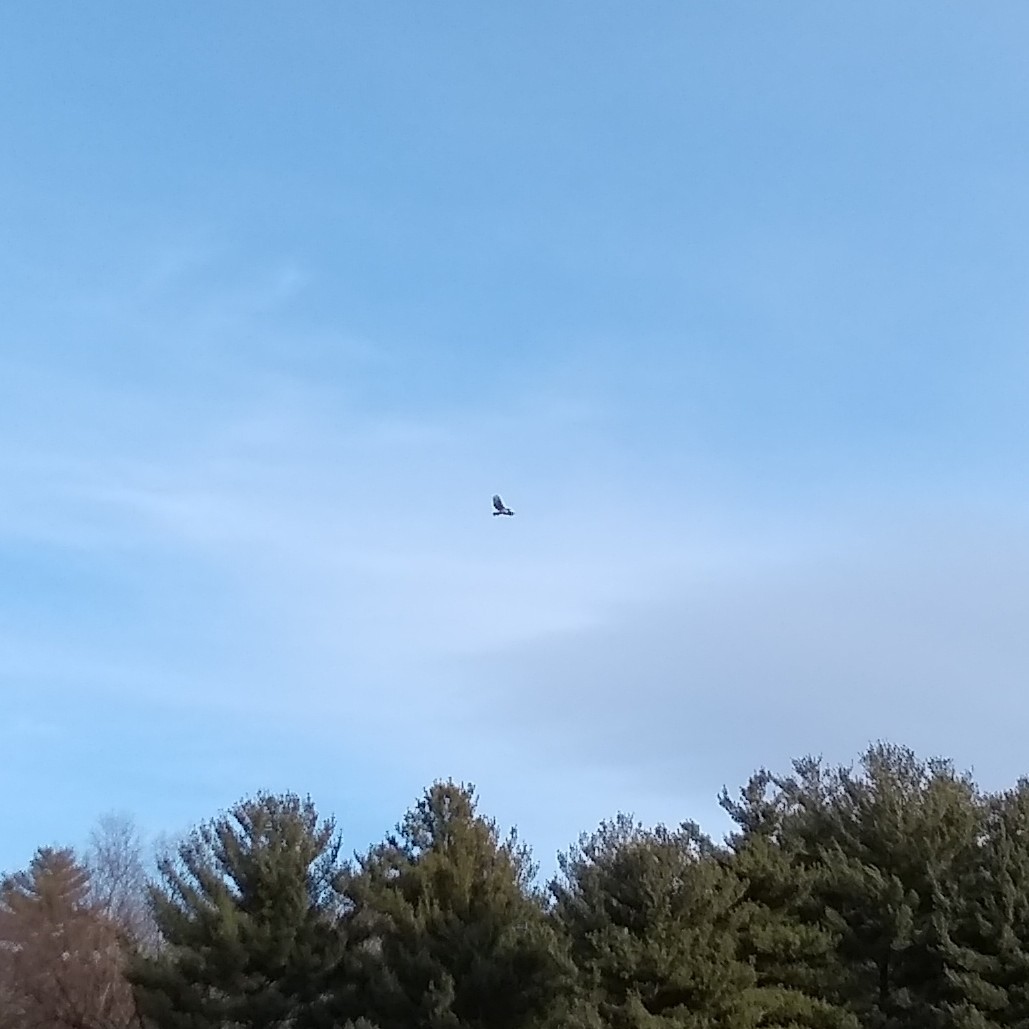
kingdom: Animalia
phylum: Chordata
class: Aves
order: Accipitriformes
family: Accipitridae
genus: Buteo
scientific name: Buteo jamaicensis
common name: Red-tailed hawk
